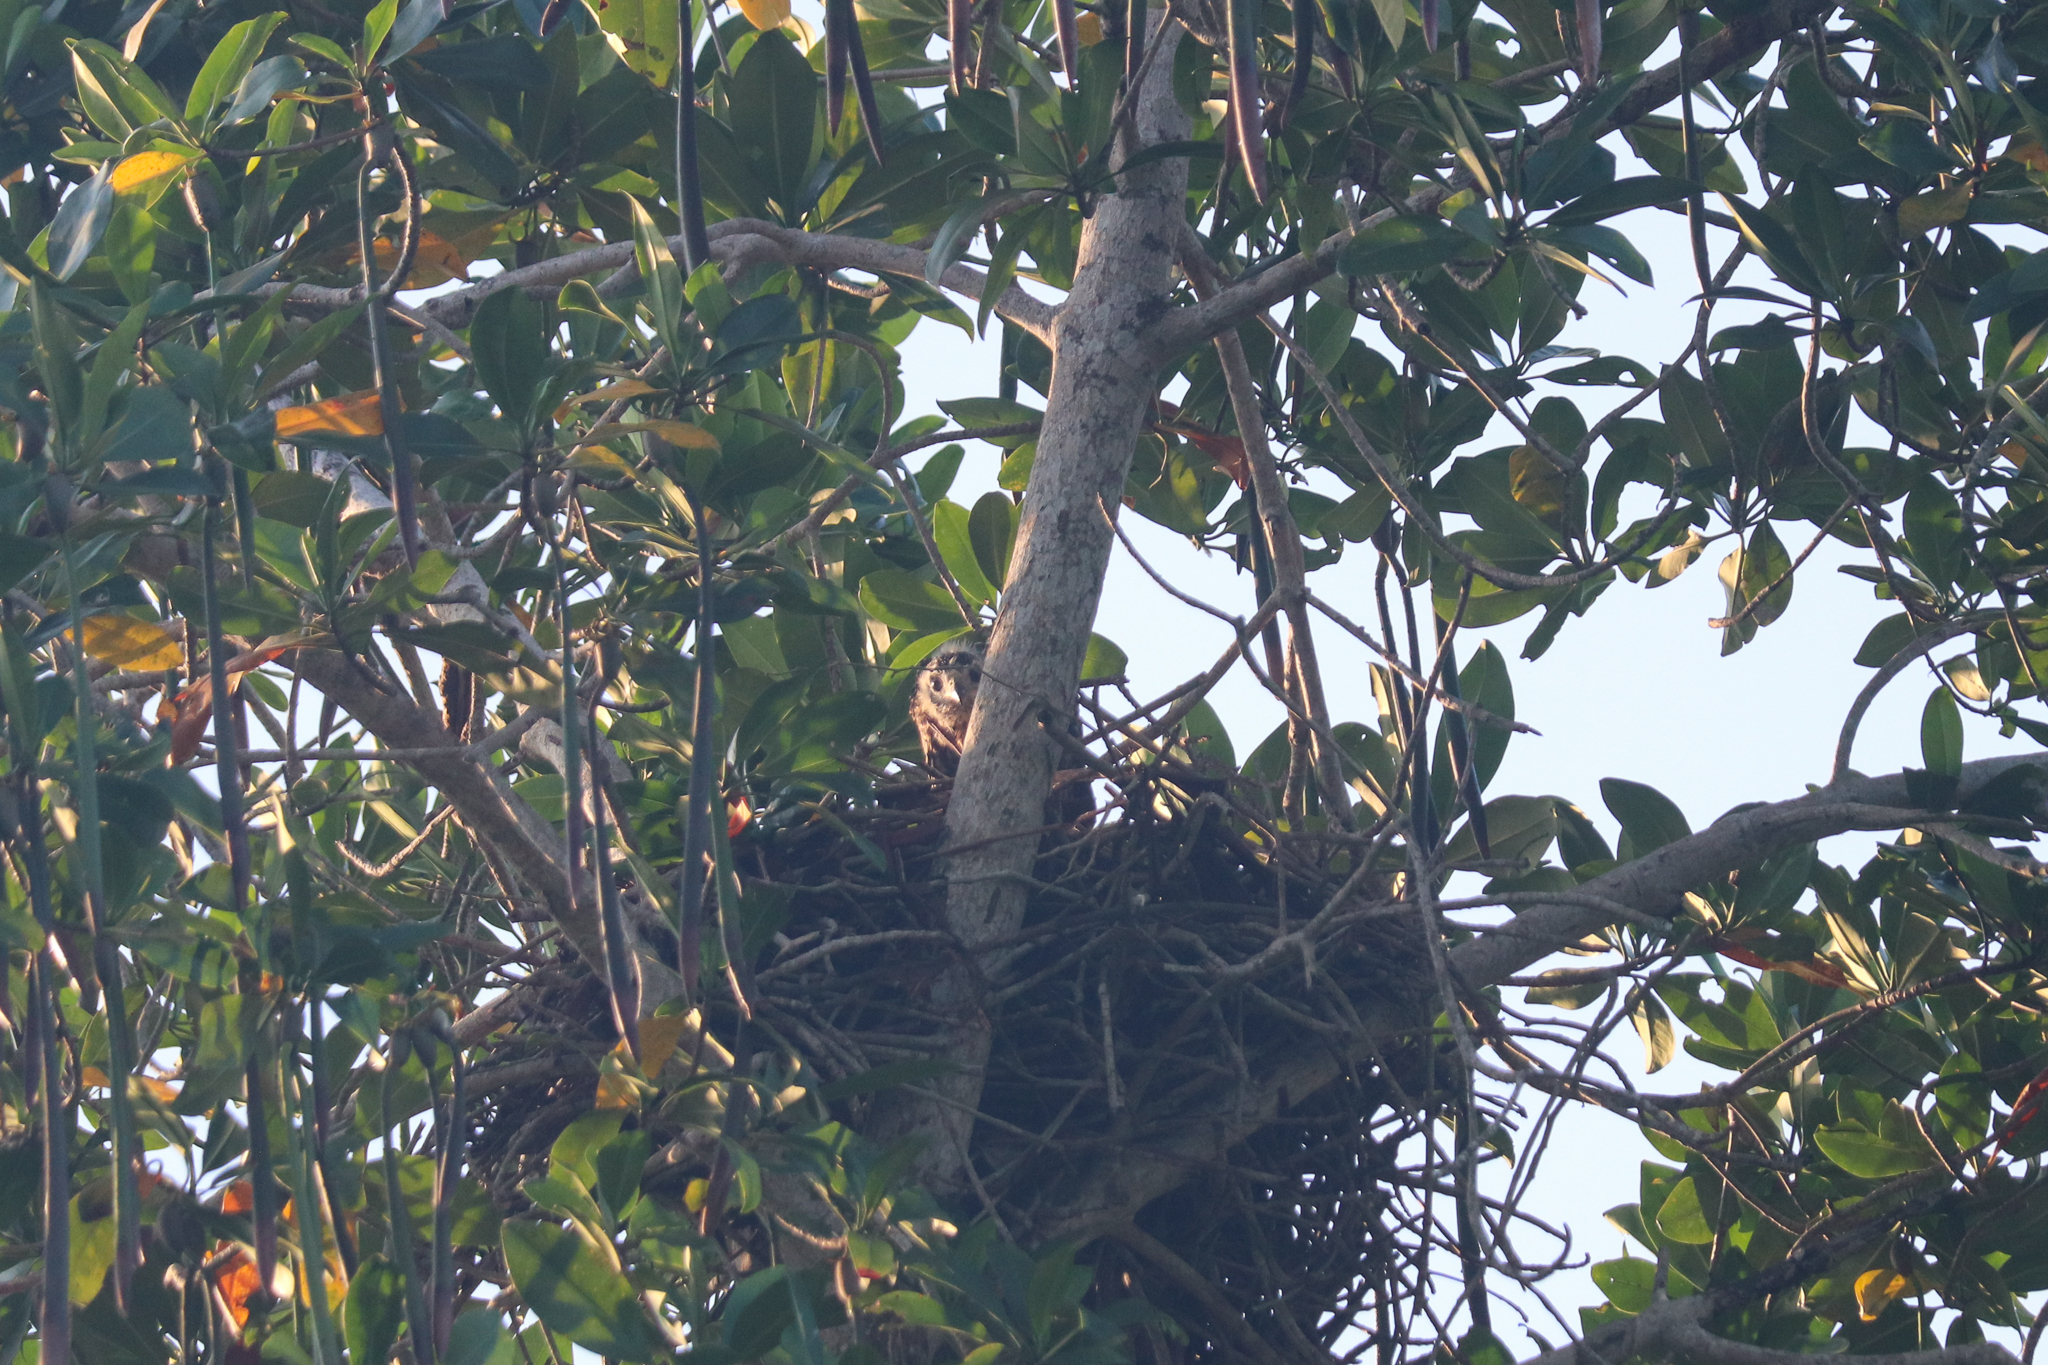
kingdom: Animalia
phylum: Chordata
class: Aves
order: Accipitriformes
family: Accipitridae
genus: Buteogallus
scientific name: Buteogallus anthracinus
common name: Common black hawk
